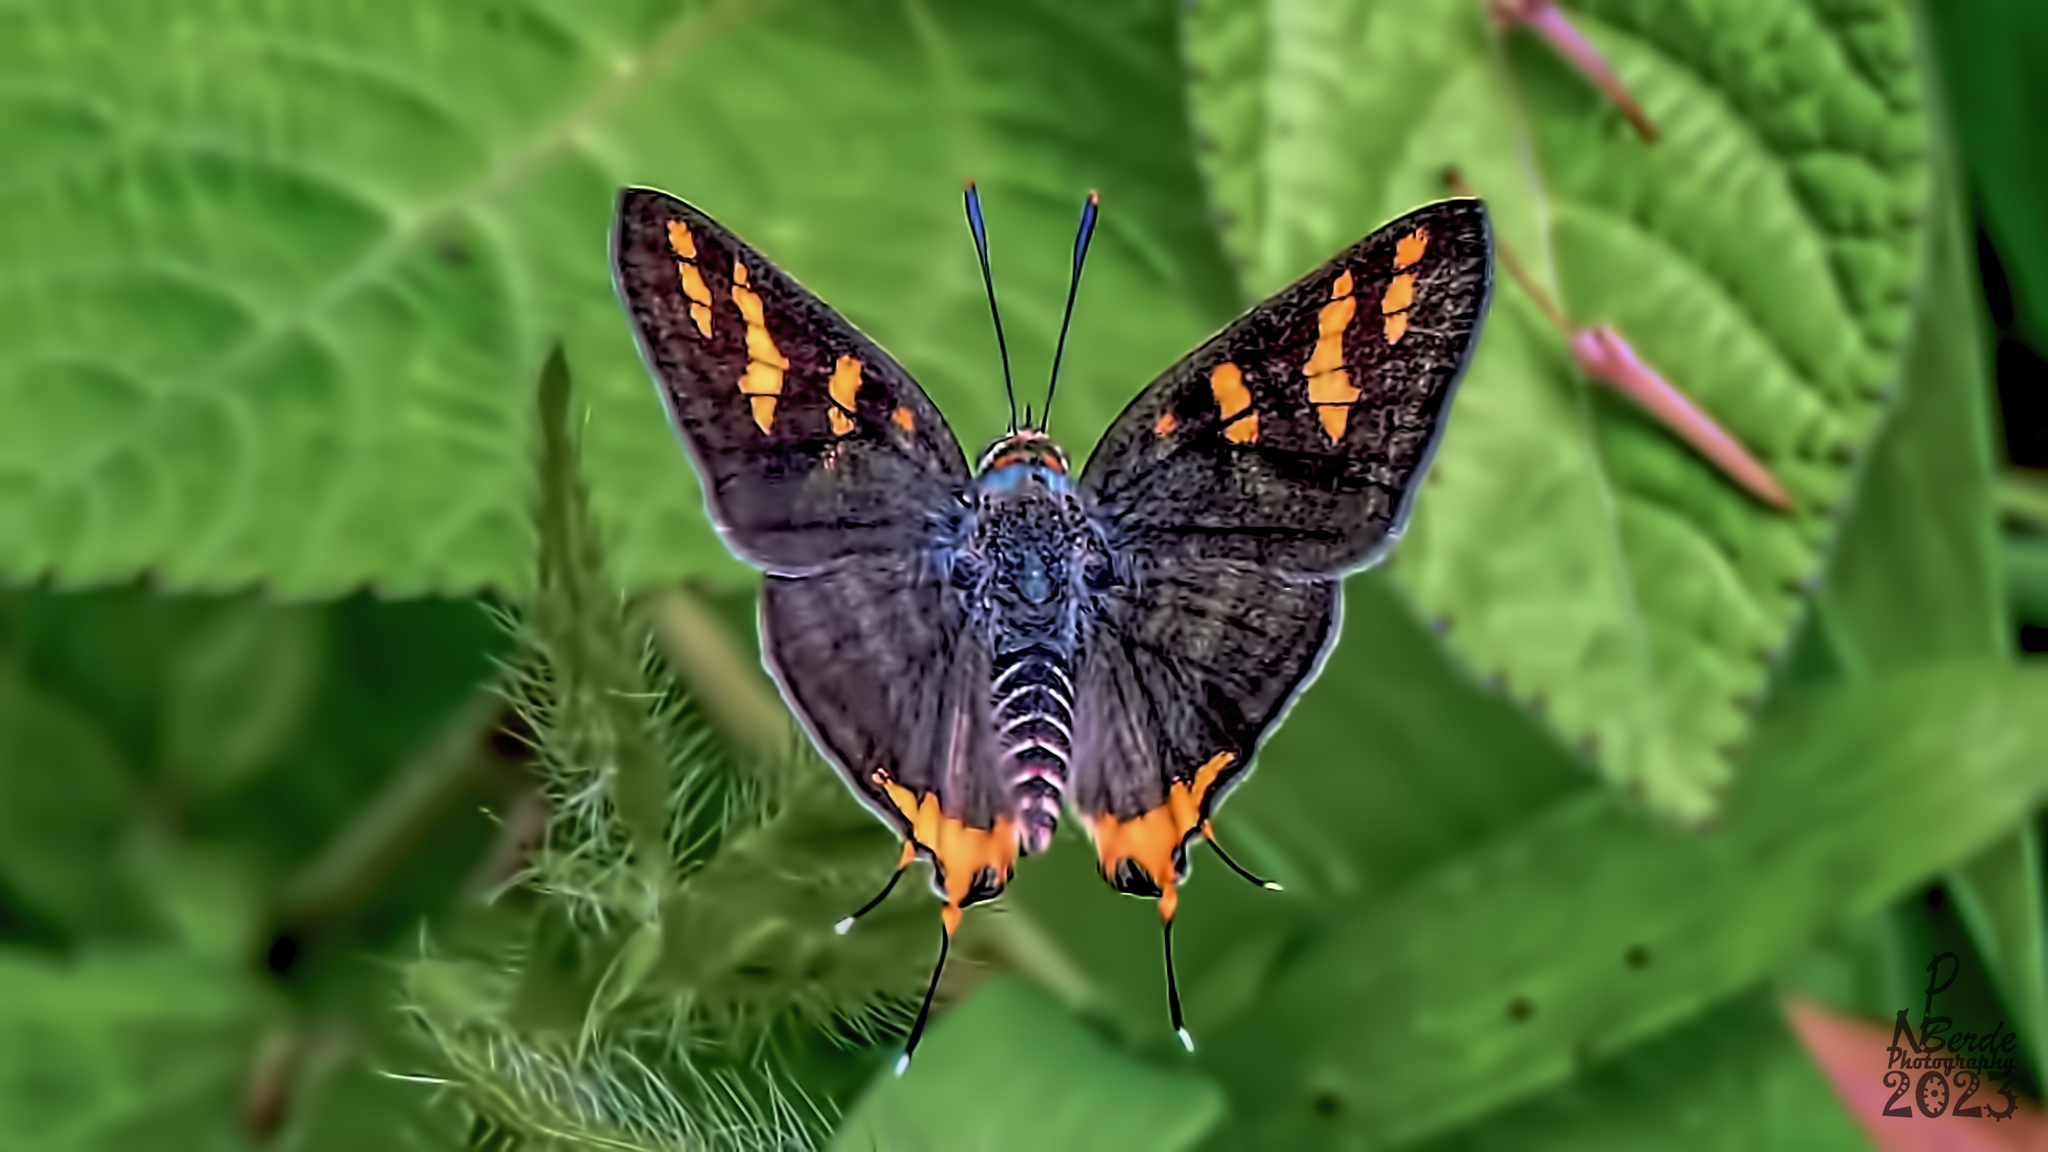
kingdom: Animalia
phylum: Arthropoda
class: Insecta
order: Lepidoptera
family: Lycaenidae
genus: Cigaritis
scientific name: Cigaritis vulcanus
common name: Common silverline
